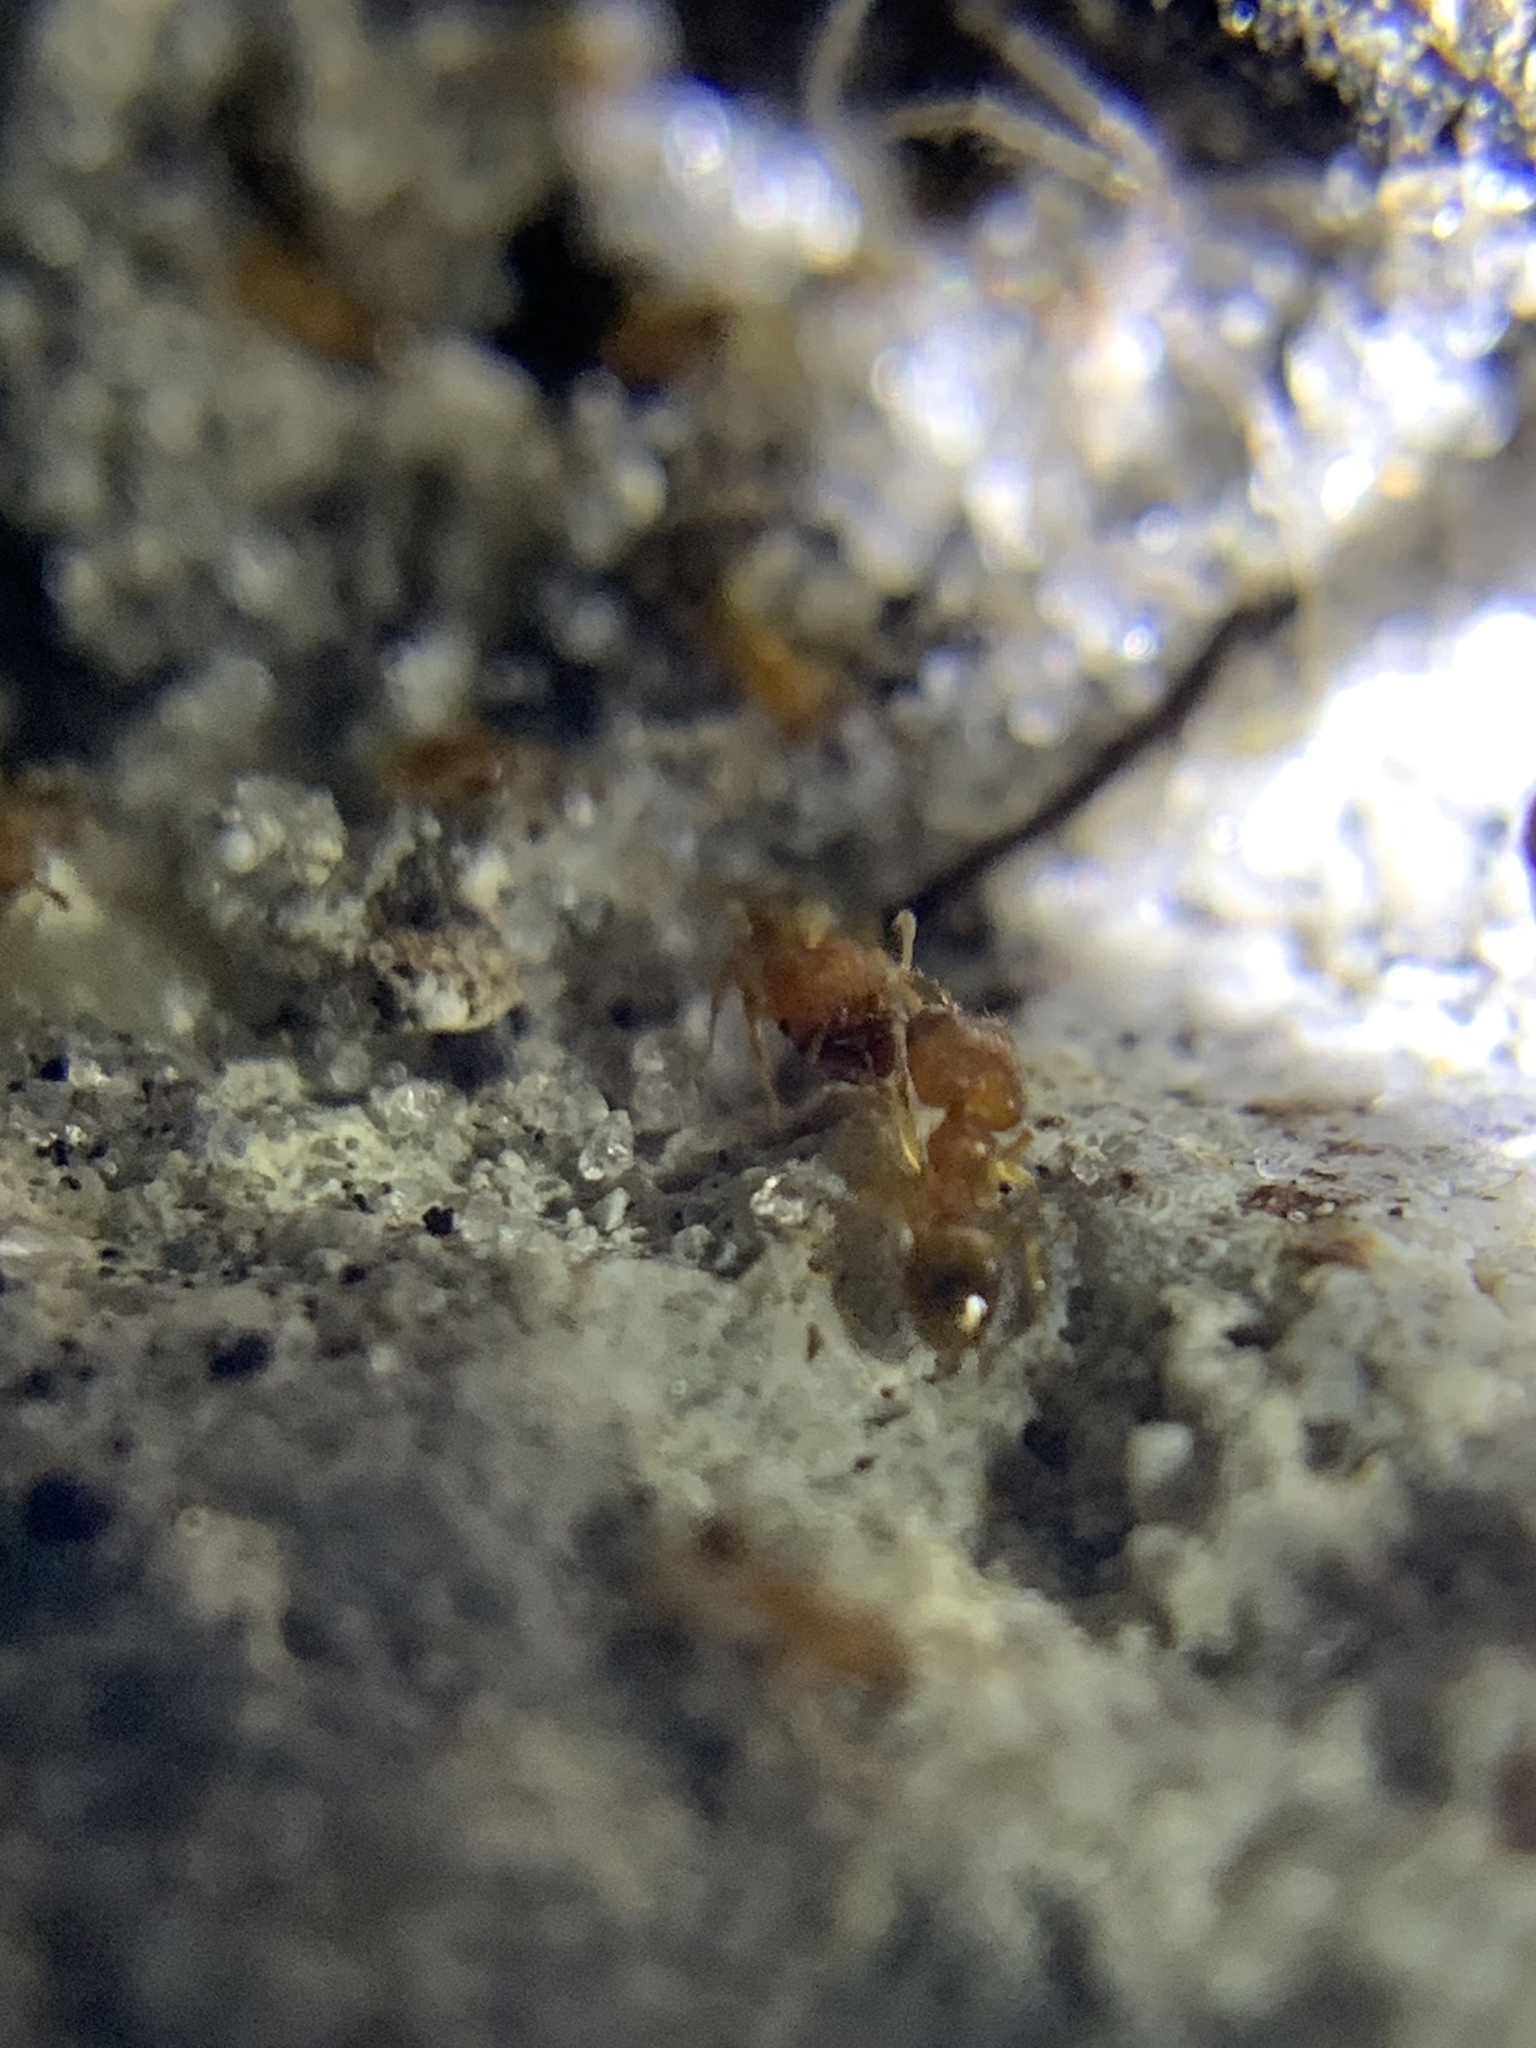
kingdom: Animalia
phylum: Arthropoda
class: Insecta
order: Hymenoptera
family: Formicidae
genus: Pheidole
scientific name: Pheidole parva
